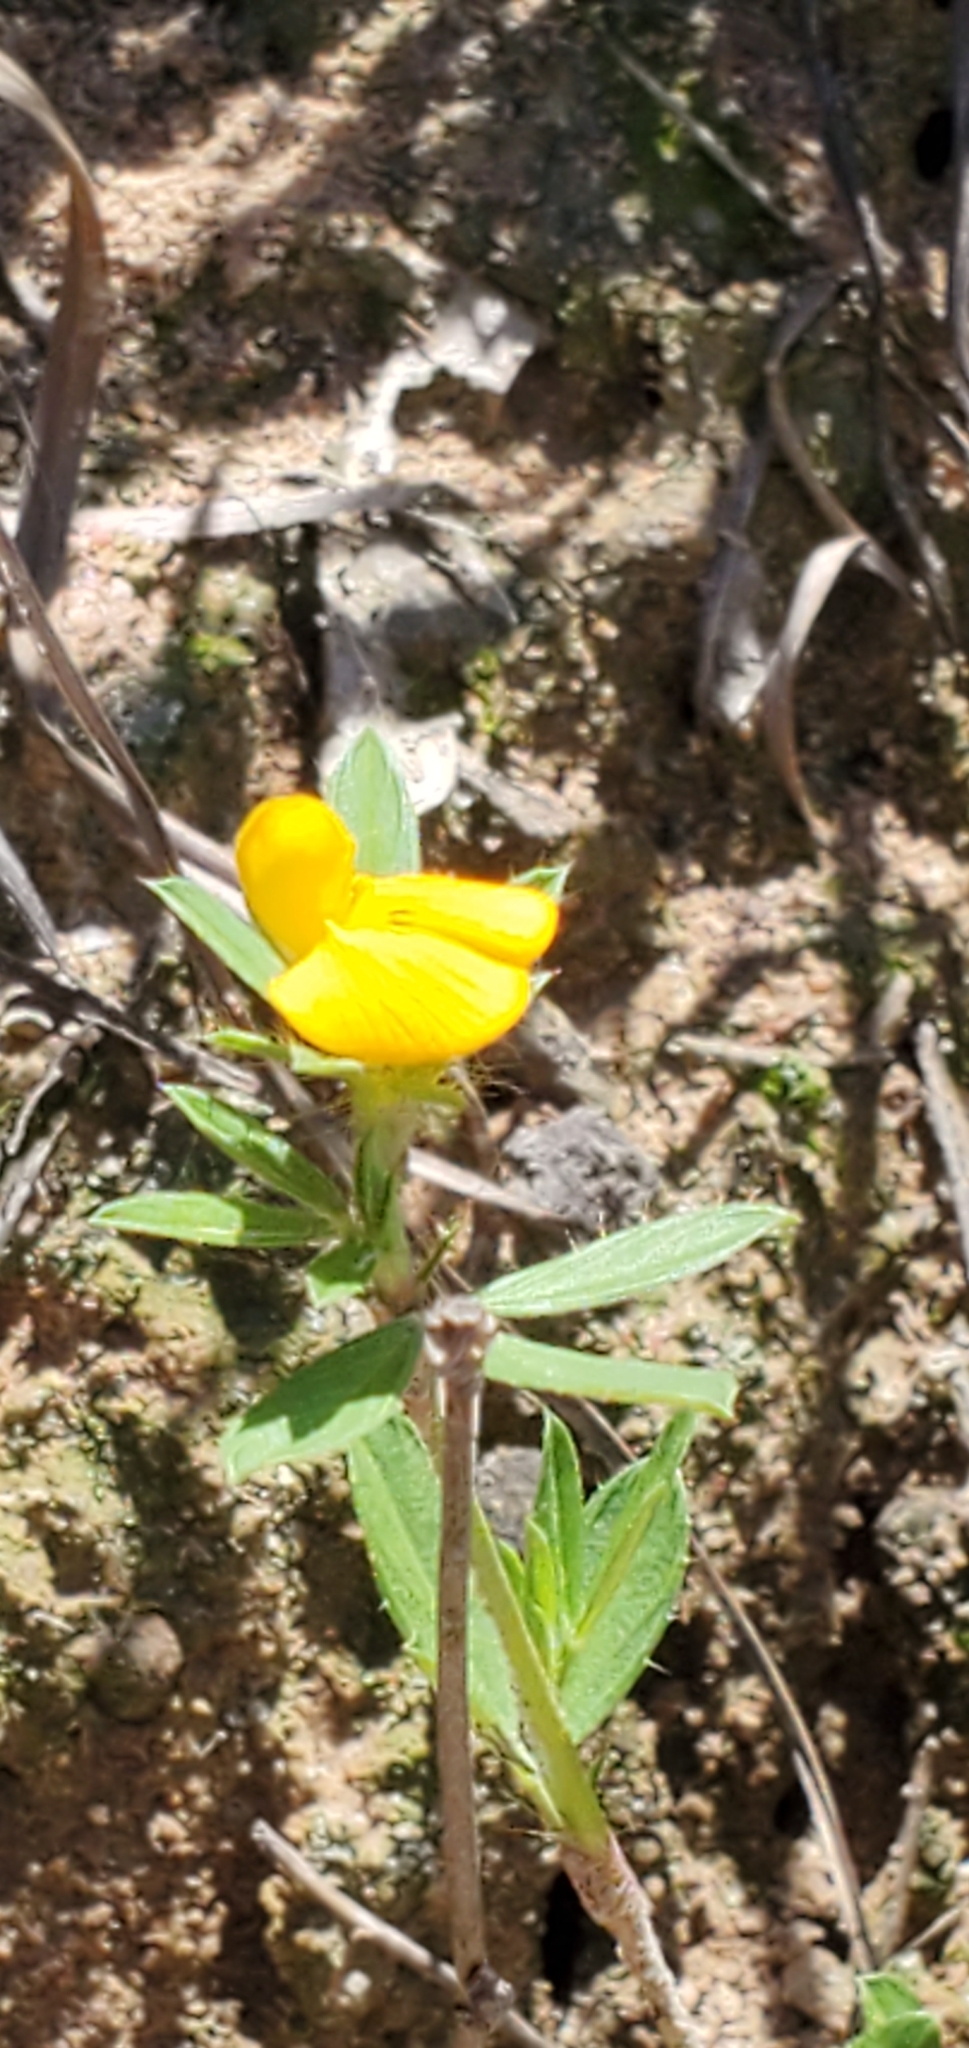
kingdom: Plantae
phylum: Tracheophyta
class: Magnoliopsida
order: Fabales
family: Fabaceae
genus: Stylosanthes
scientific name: Stylosanthes biflora
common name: Two-flower pencil-flower
